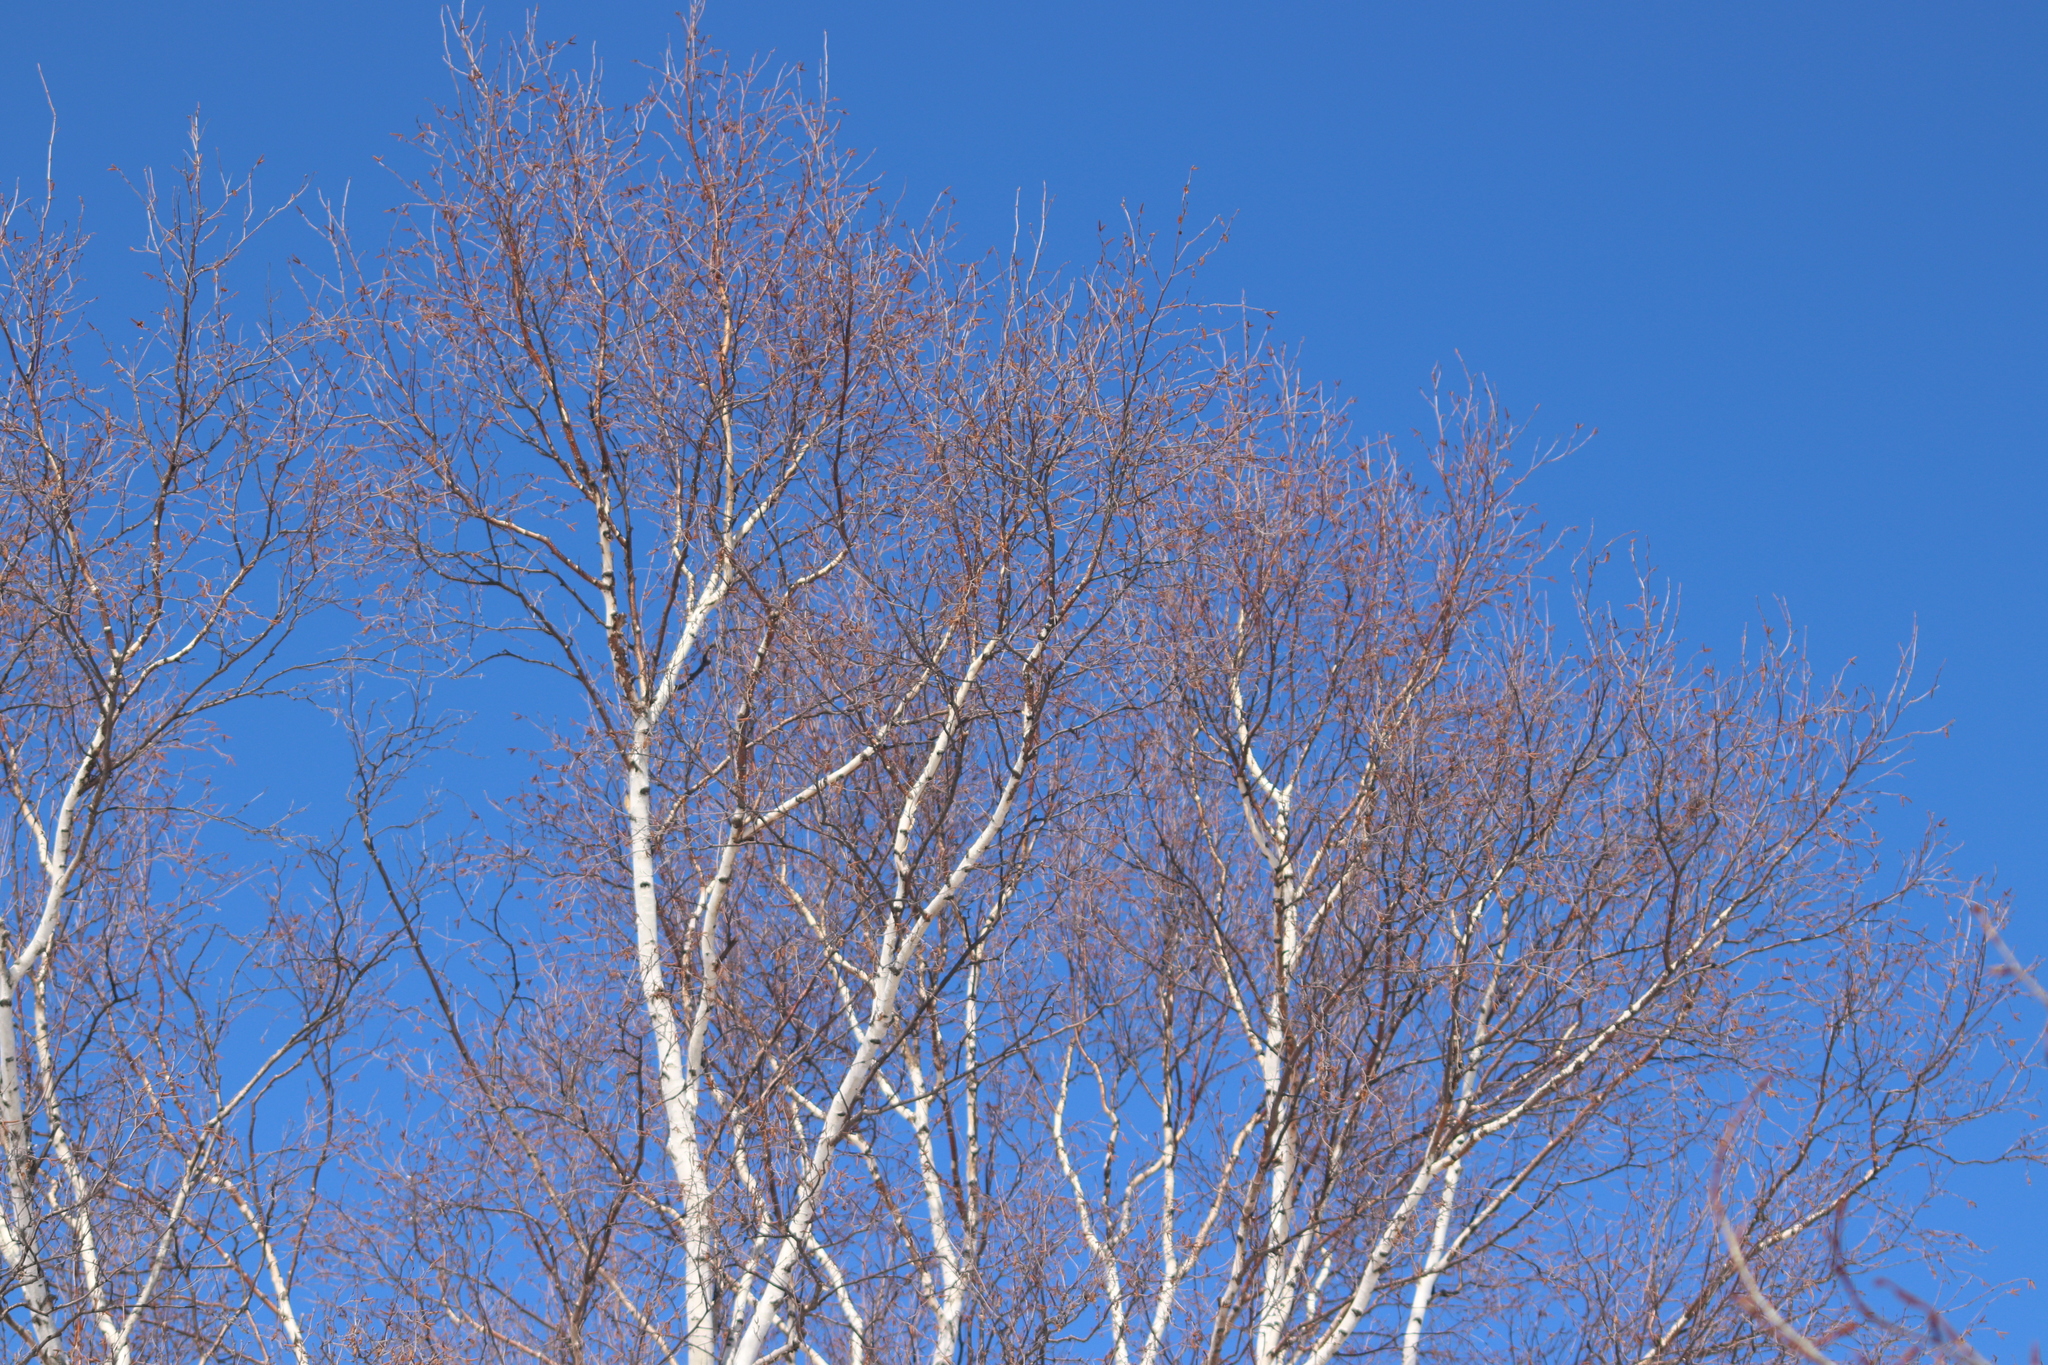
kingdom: Plantae
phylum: Tracheophyta
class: Magnoliopsida
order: Fagales
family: Betulaceae
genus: Betula
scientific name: Betula papyrifera
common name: Paper birch
